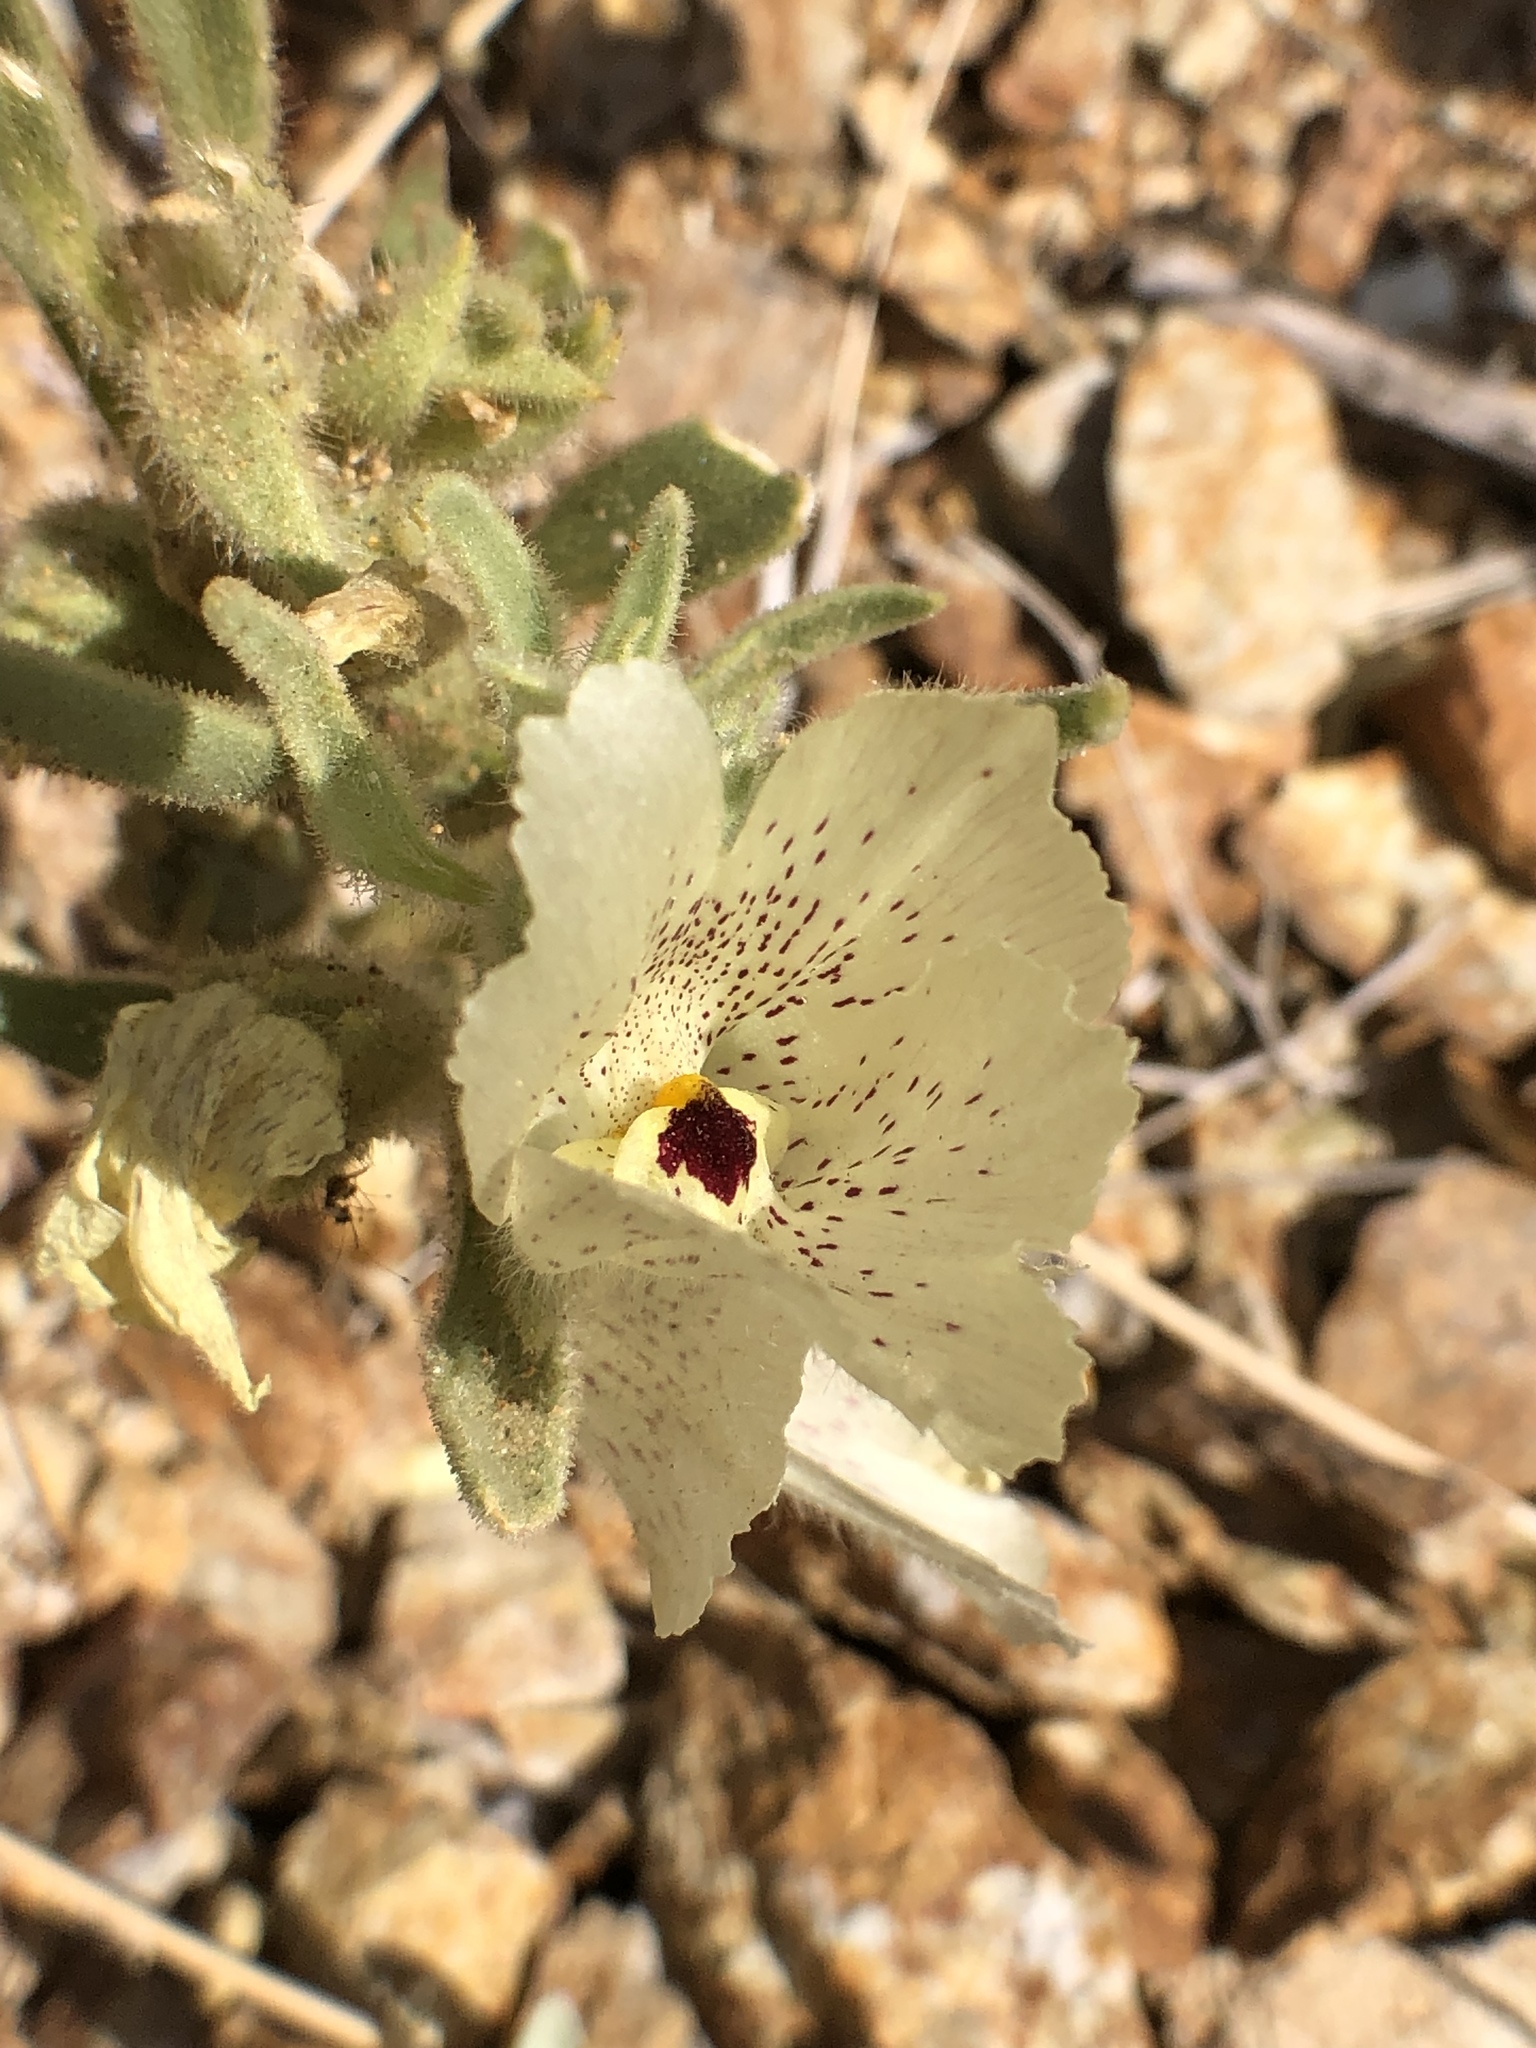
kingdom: Plantae
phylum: Tracheophyta
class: Magnoliopsida
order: Lamiales
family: Plantaginaceae
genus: Mohavea
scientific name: Mohavea confertiflora
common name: Ghost flower
